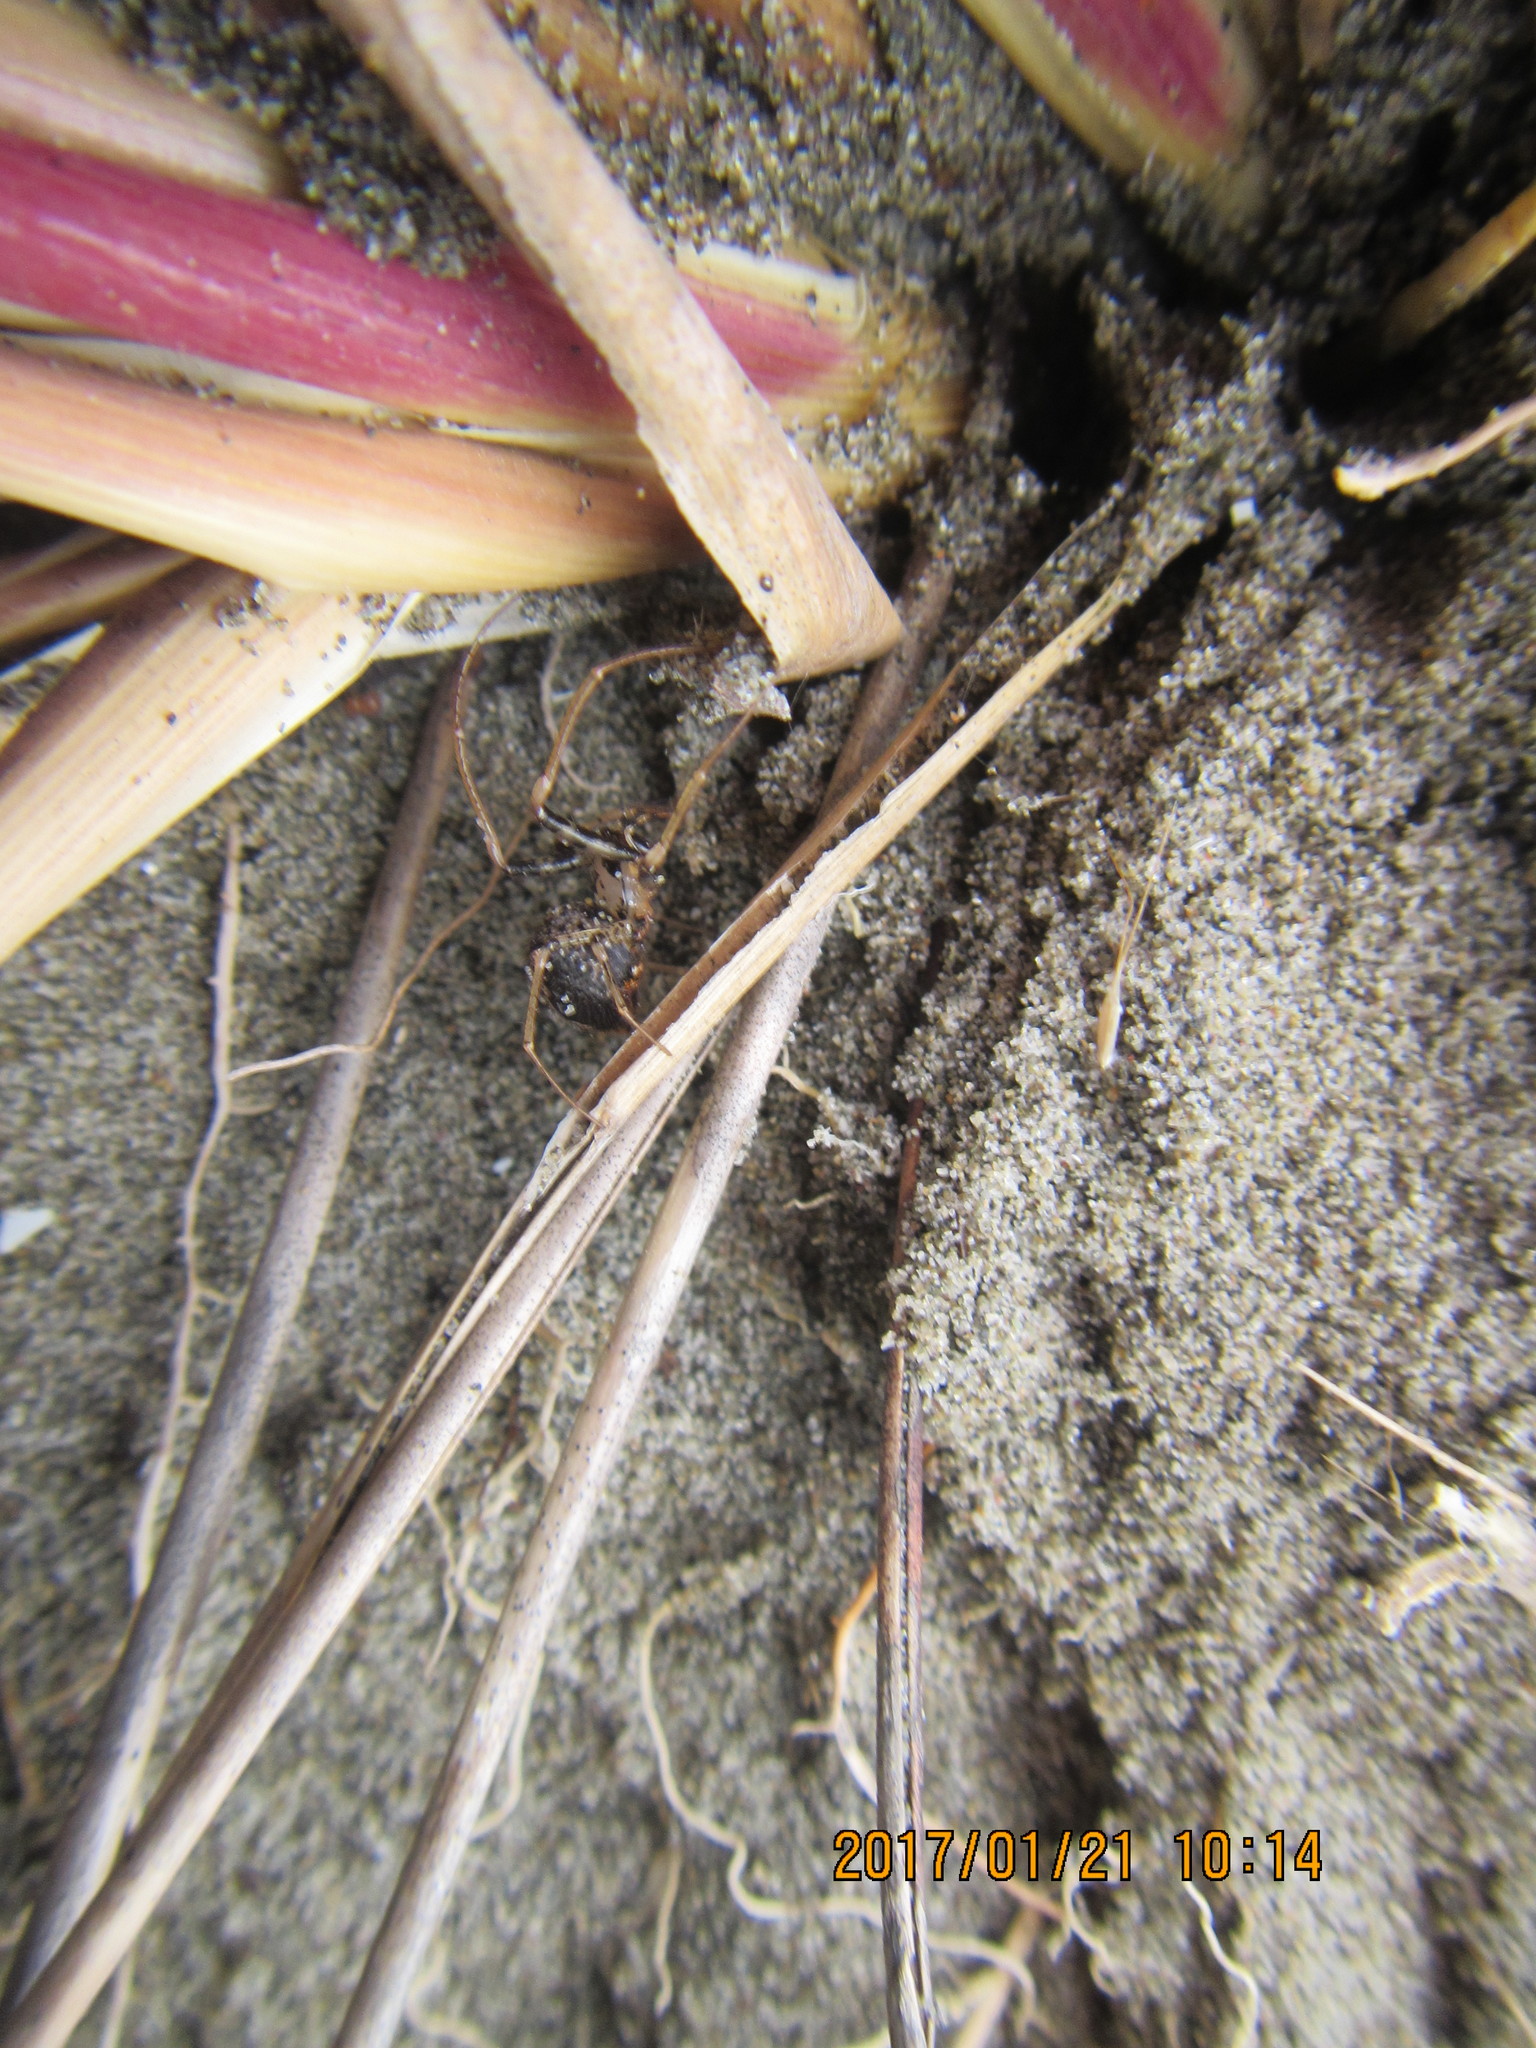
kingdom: Animalia
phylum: Arthropoda
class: Arachnida
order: Araneae
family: Mimetidae
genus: Australomimetus
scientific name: Australomimetus hartleyensis
